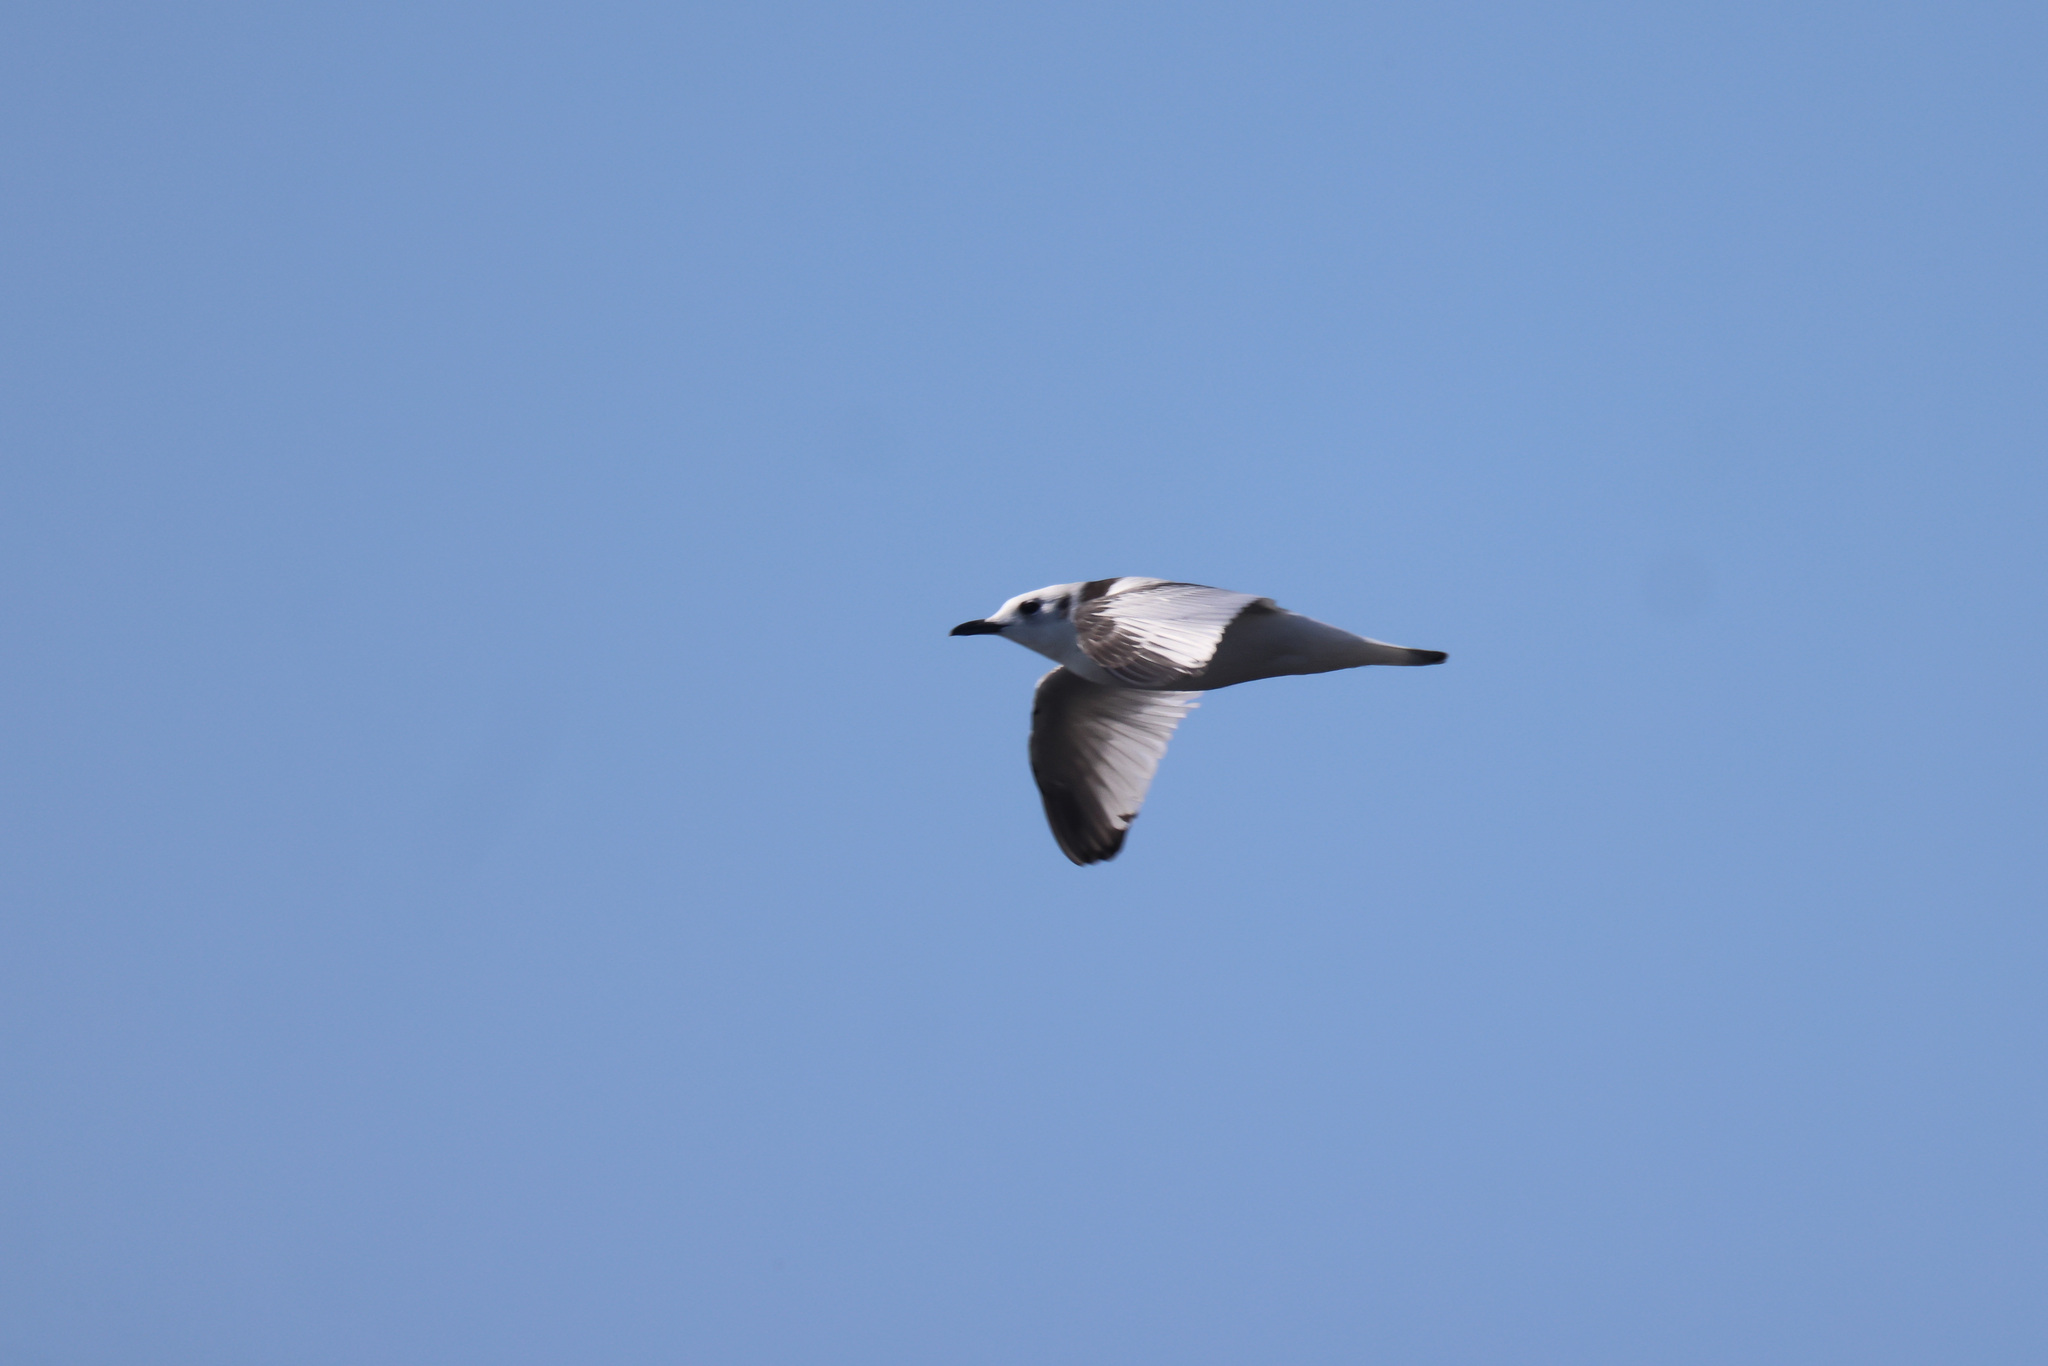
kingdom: Animalia
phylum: Chordata
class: Aves
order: Charadriiformes
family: Laridae
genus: Rissa
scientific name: Rissa tridactyla
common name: Black-legged kittiwake
